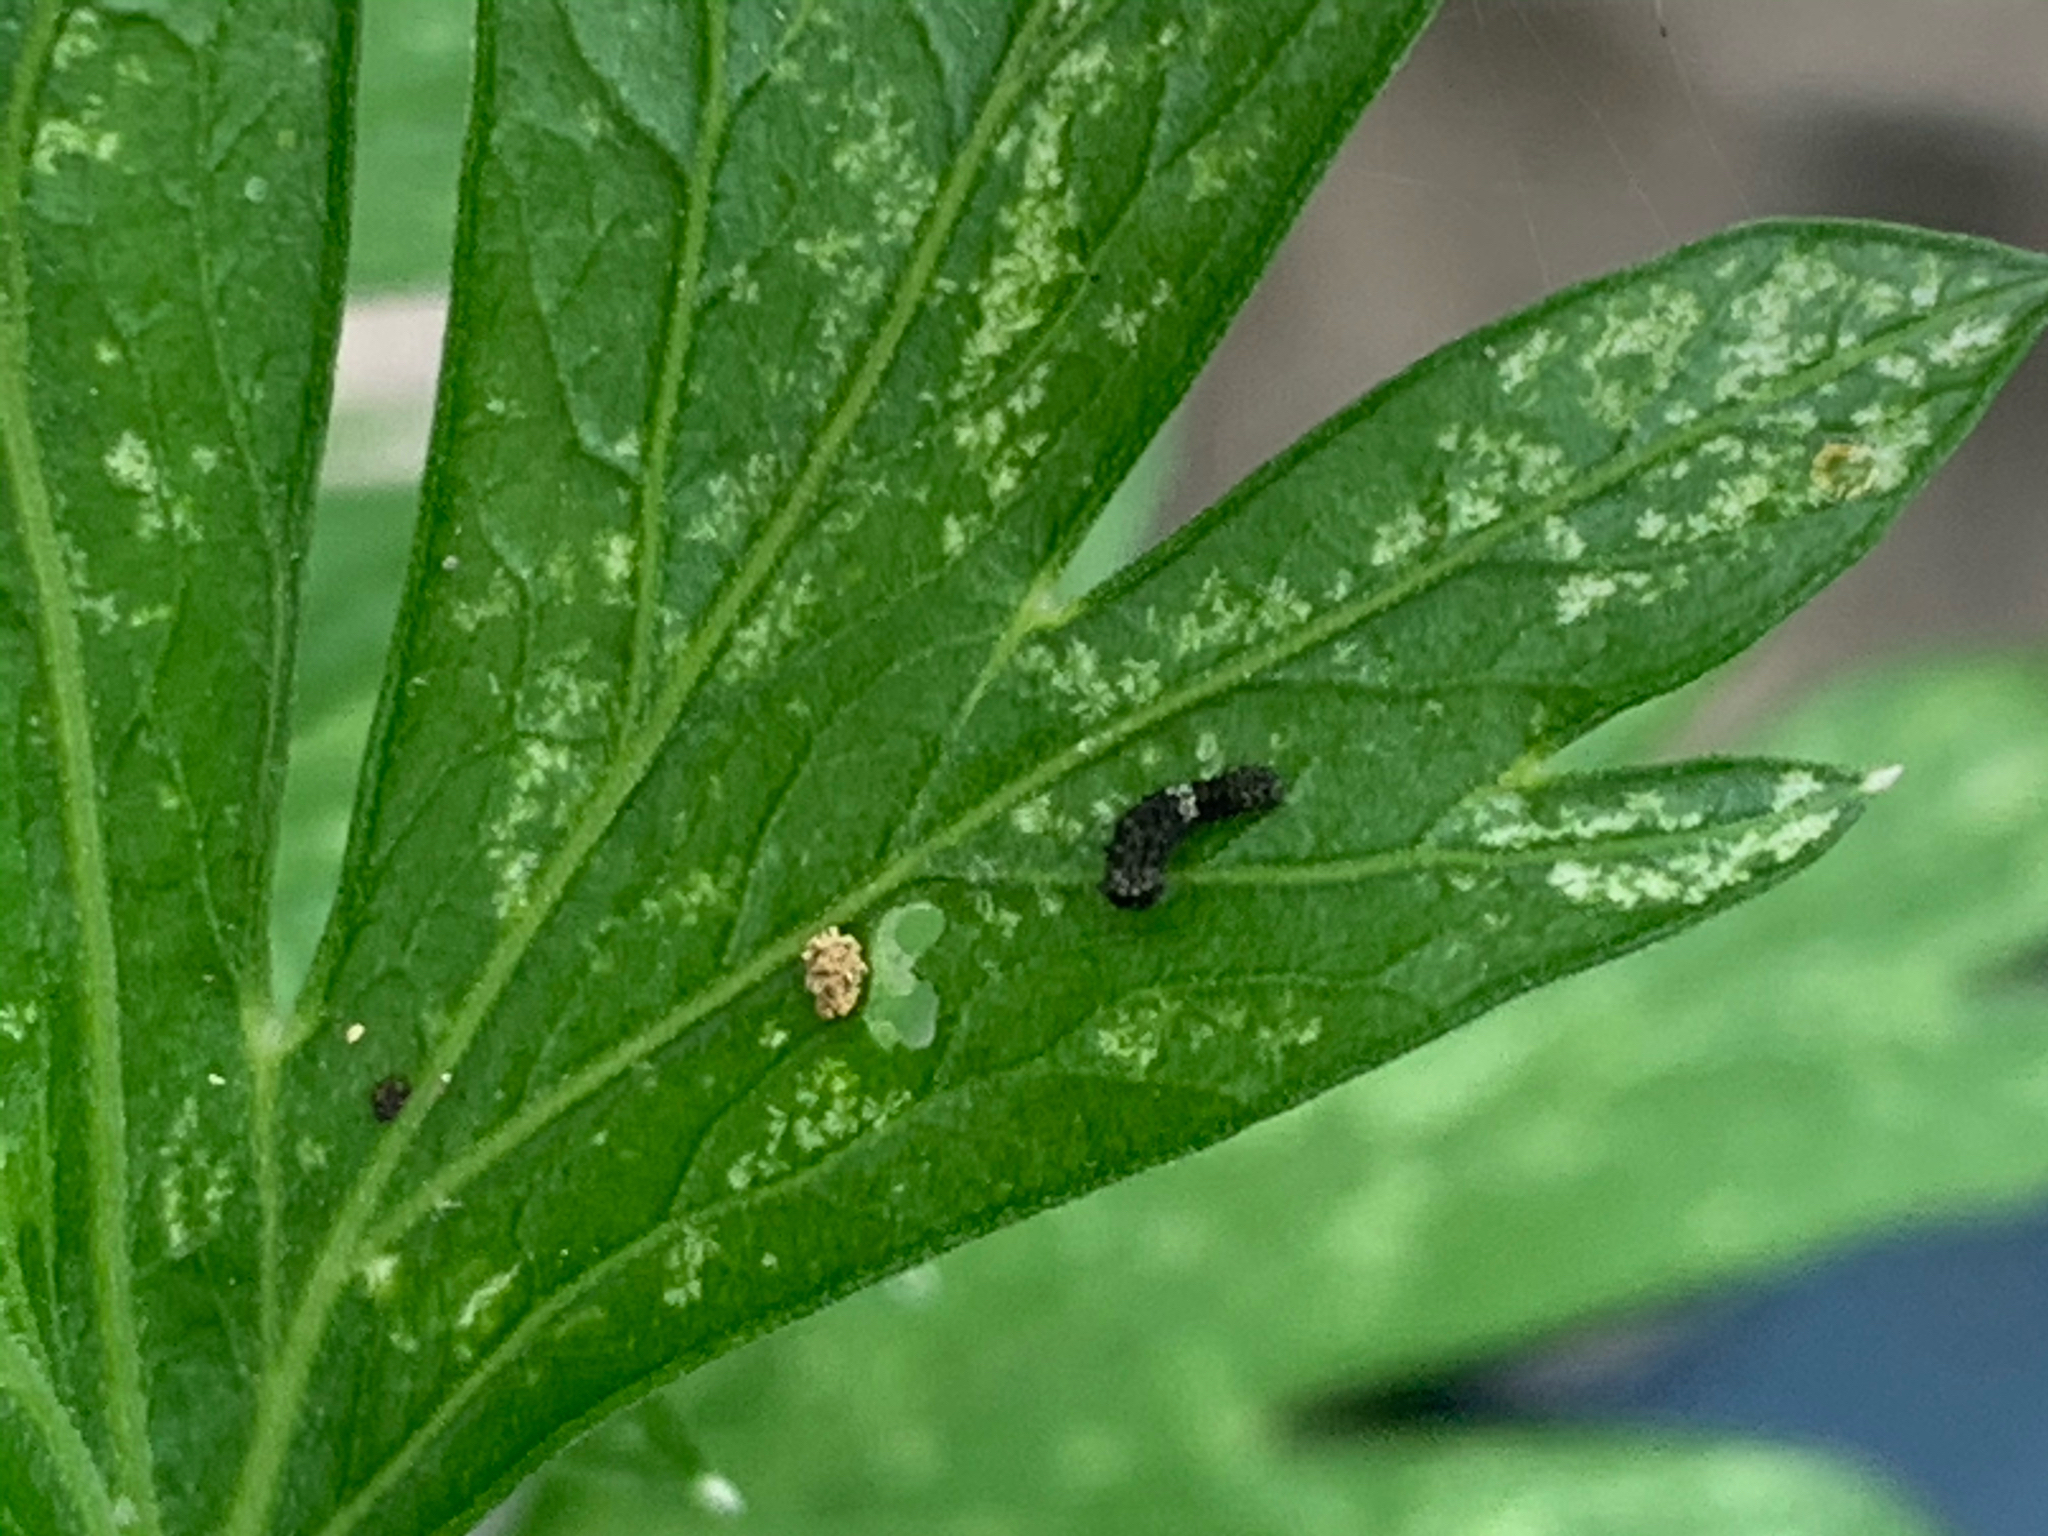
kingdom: Animalia
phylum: Arthropoda
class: Insecta
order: Lepidoptera
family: Papilionidae
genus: Papilio
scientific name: Papilio polyxenes
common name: Black swallowtail
